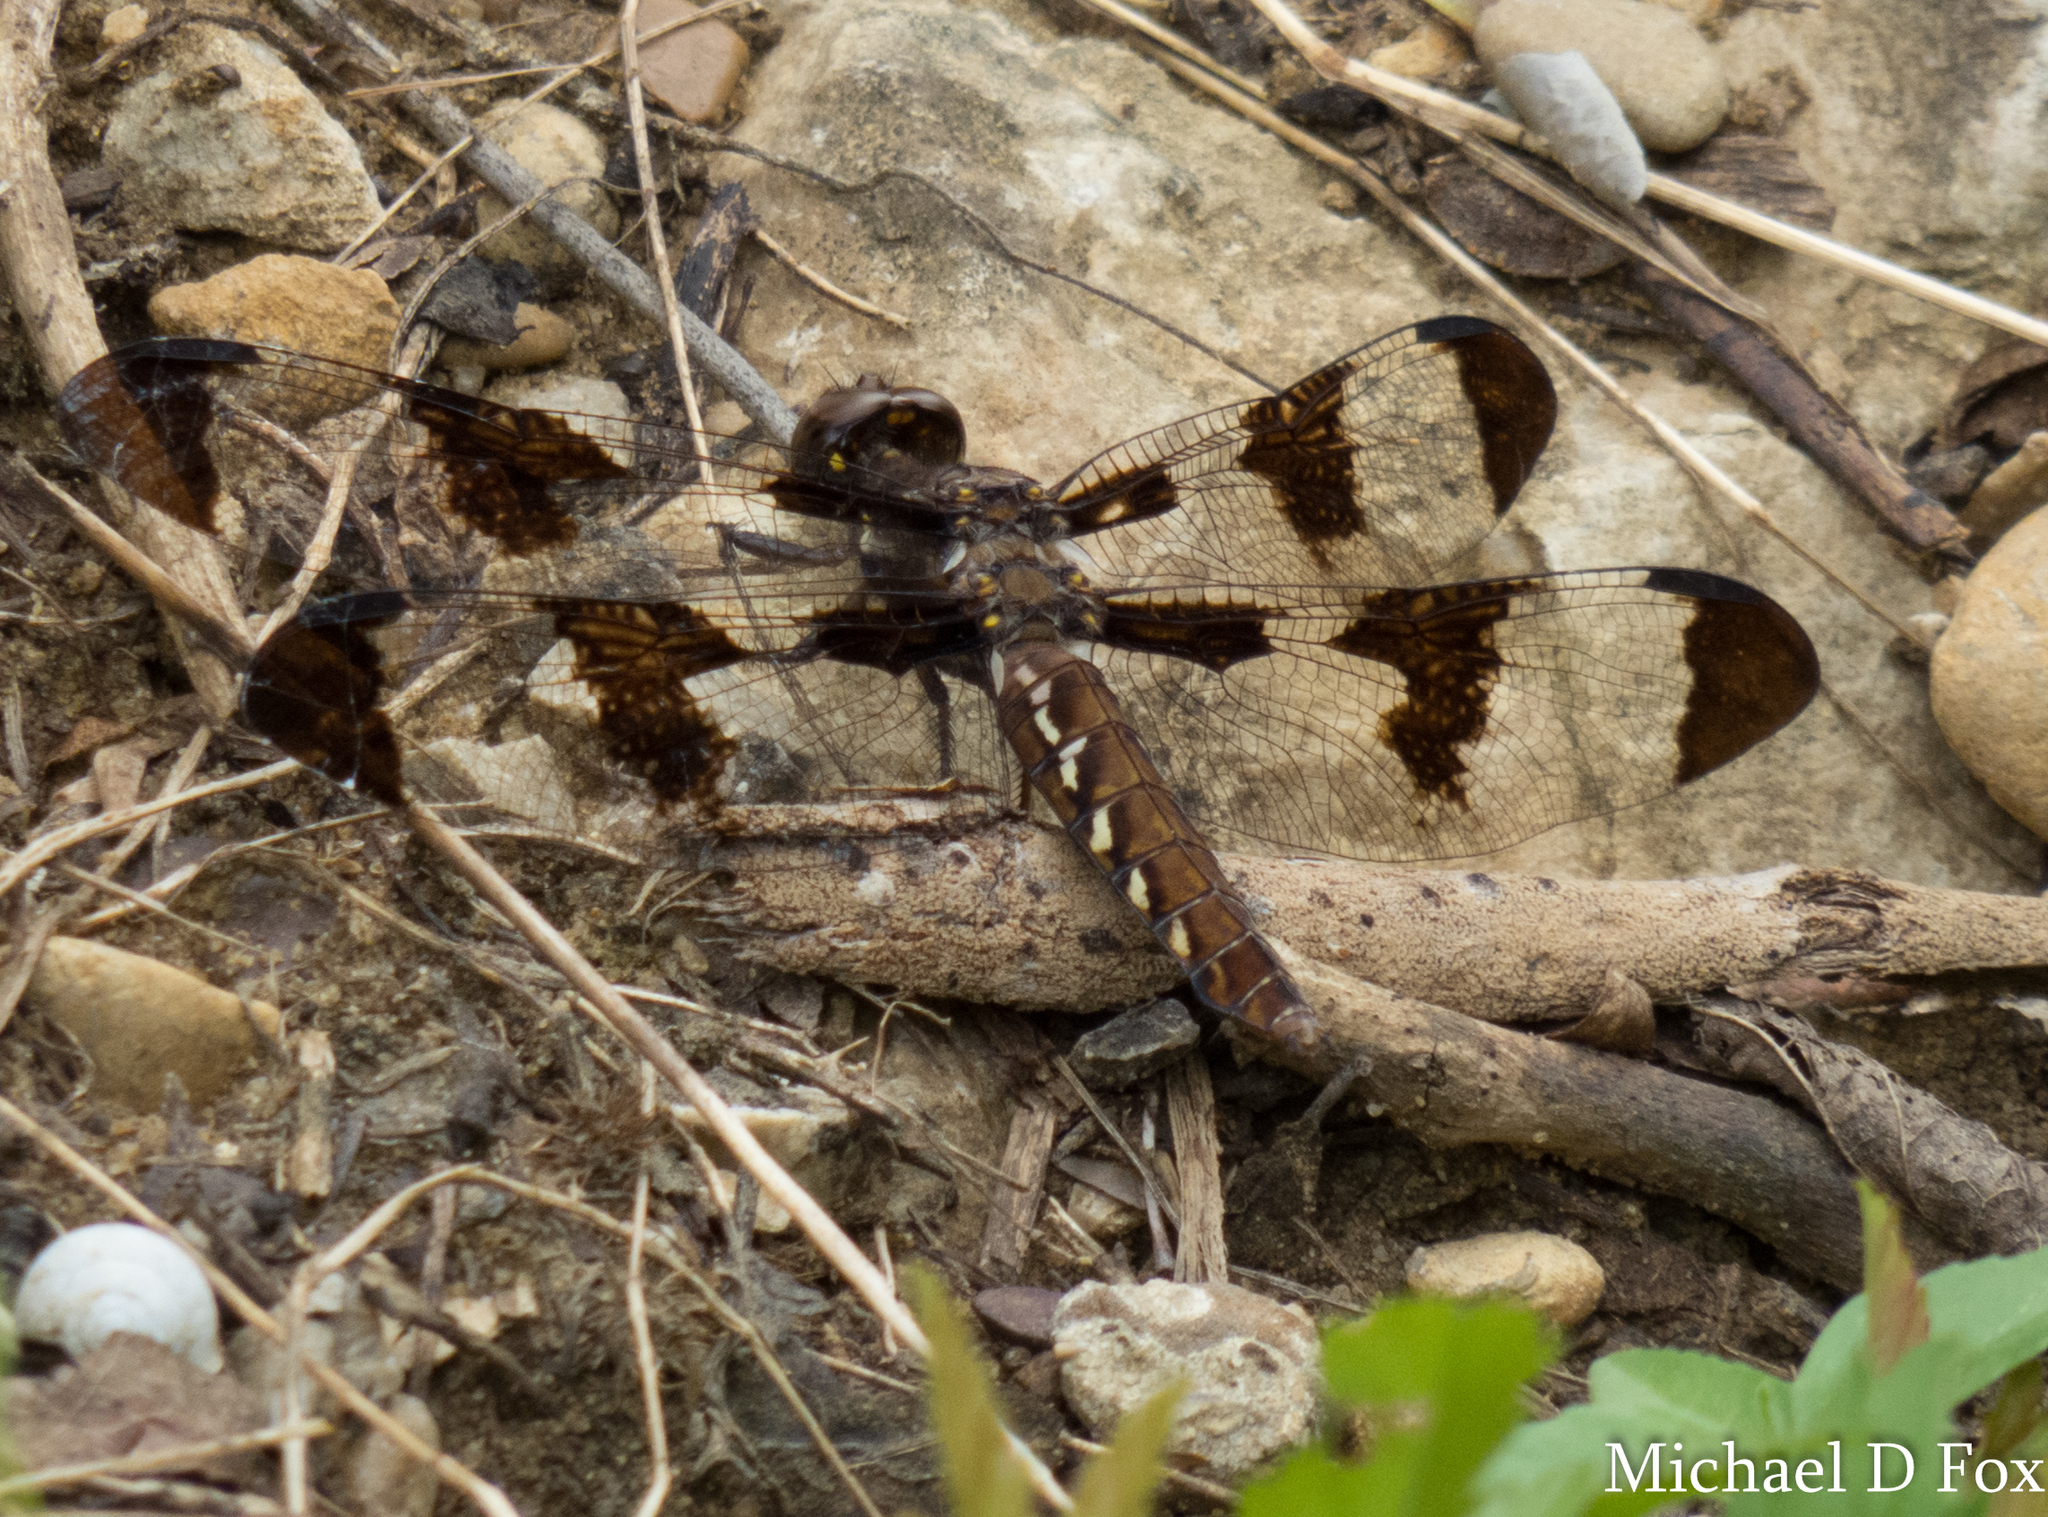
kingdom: Animalia
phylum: Arthropoda
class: Insecta
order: Odonata
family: Libellulidae
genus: Plathemis
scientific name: Plathemis lydia
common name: Common whitetail
